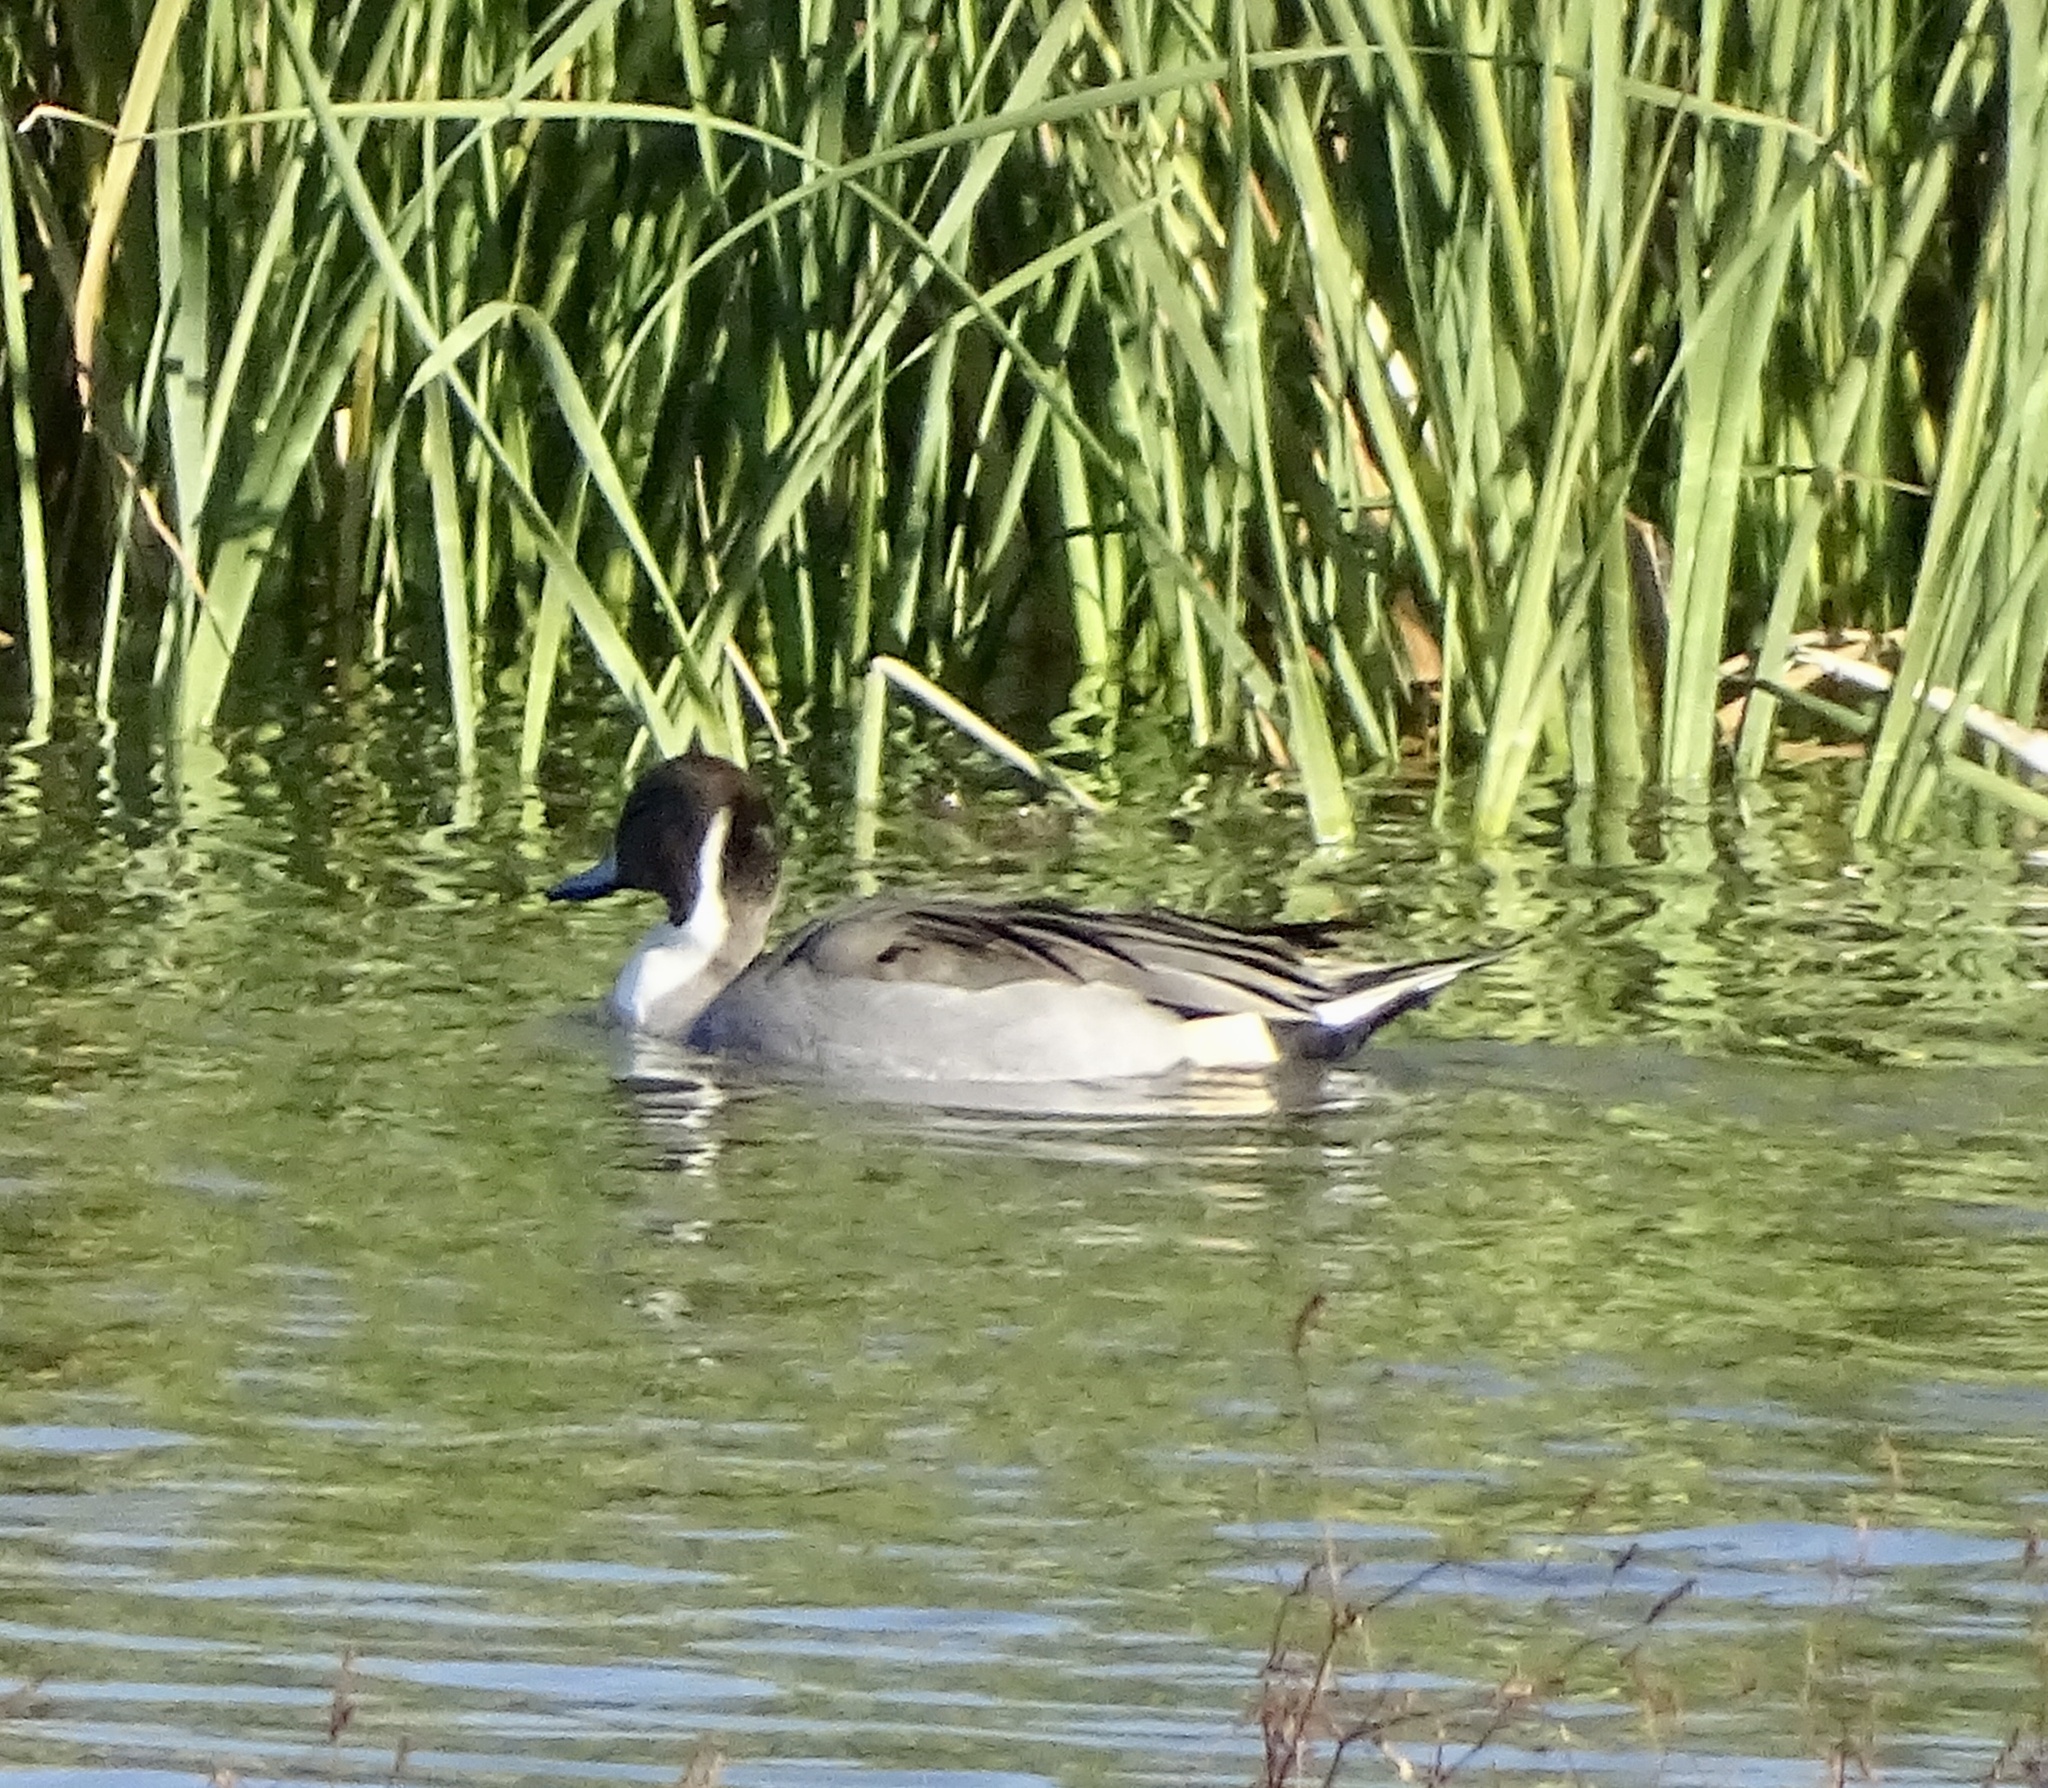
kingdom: Animalia
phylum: Chordata
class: Aves
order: Anseriformes
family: Anatidae
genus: Anas
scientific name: Anas acuta
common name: Northern pintail
